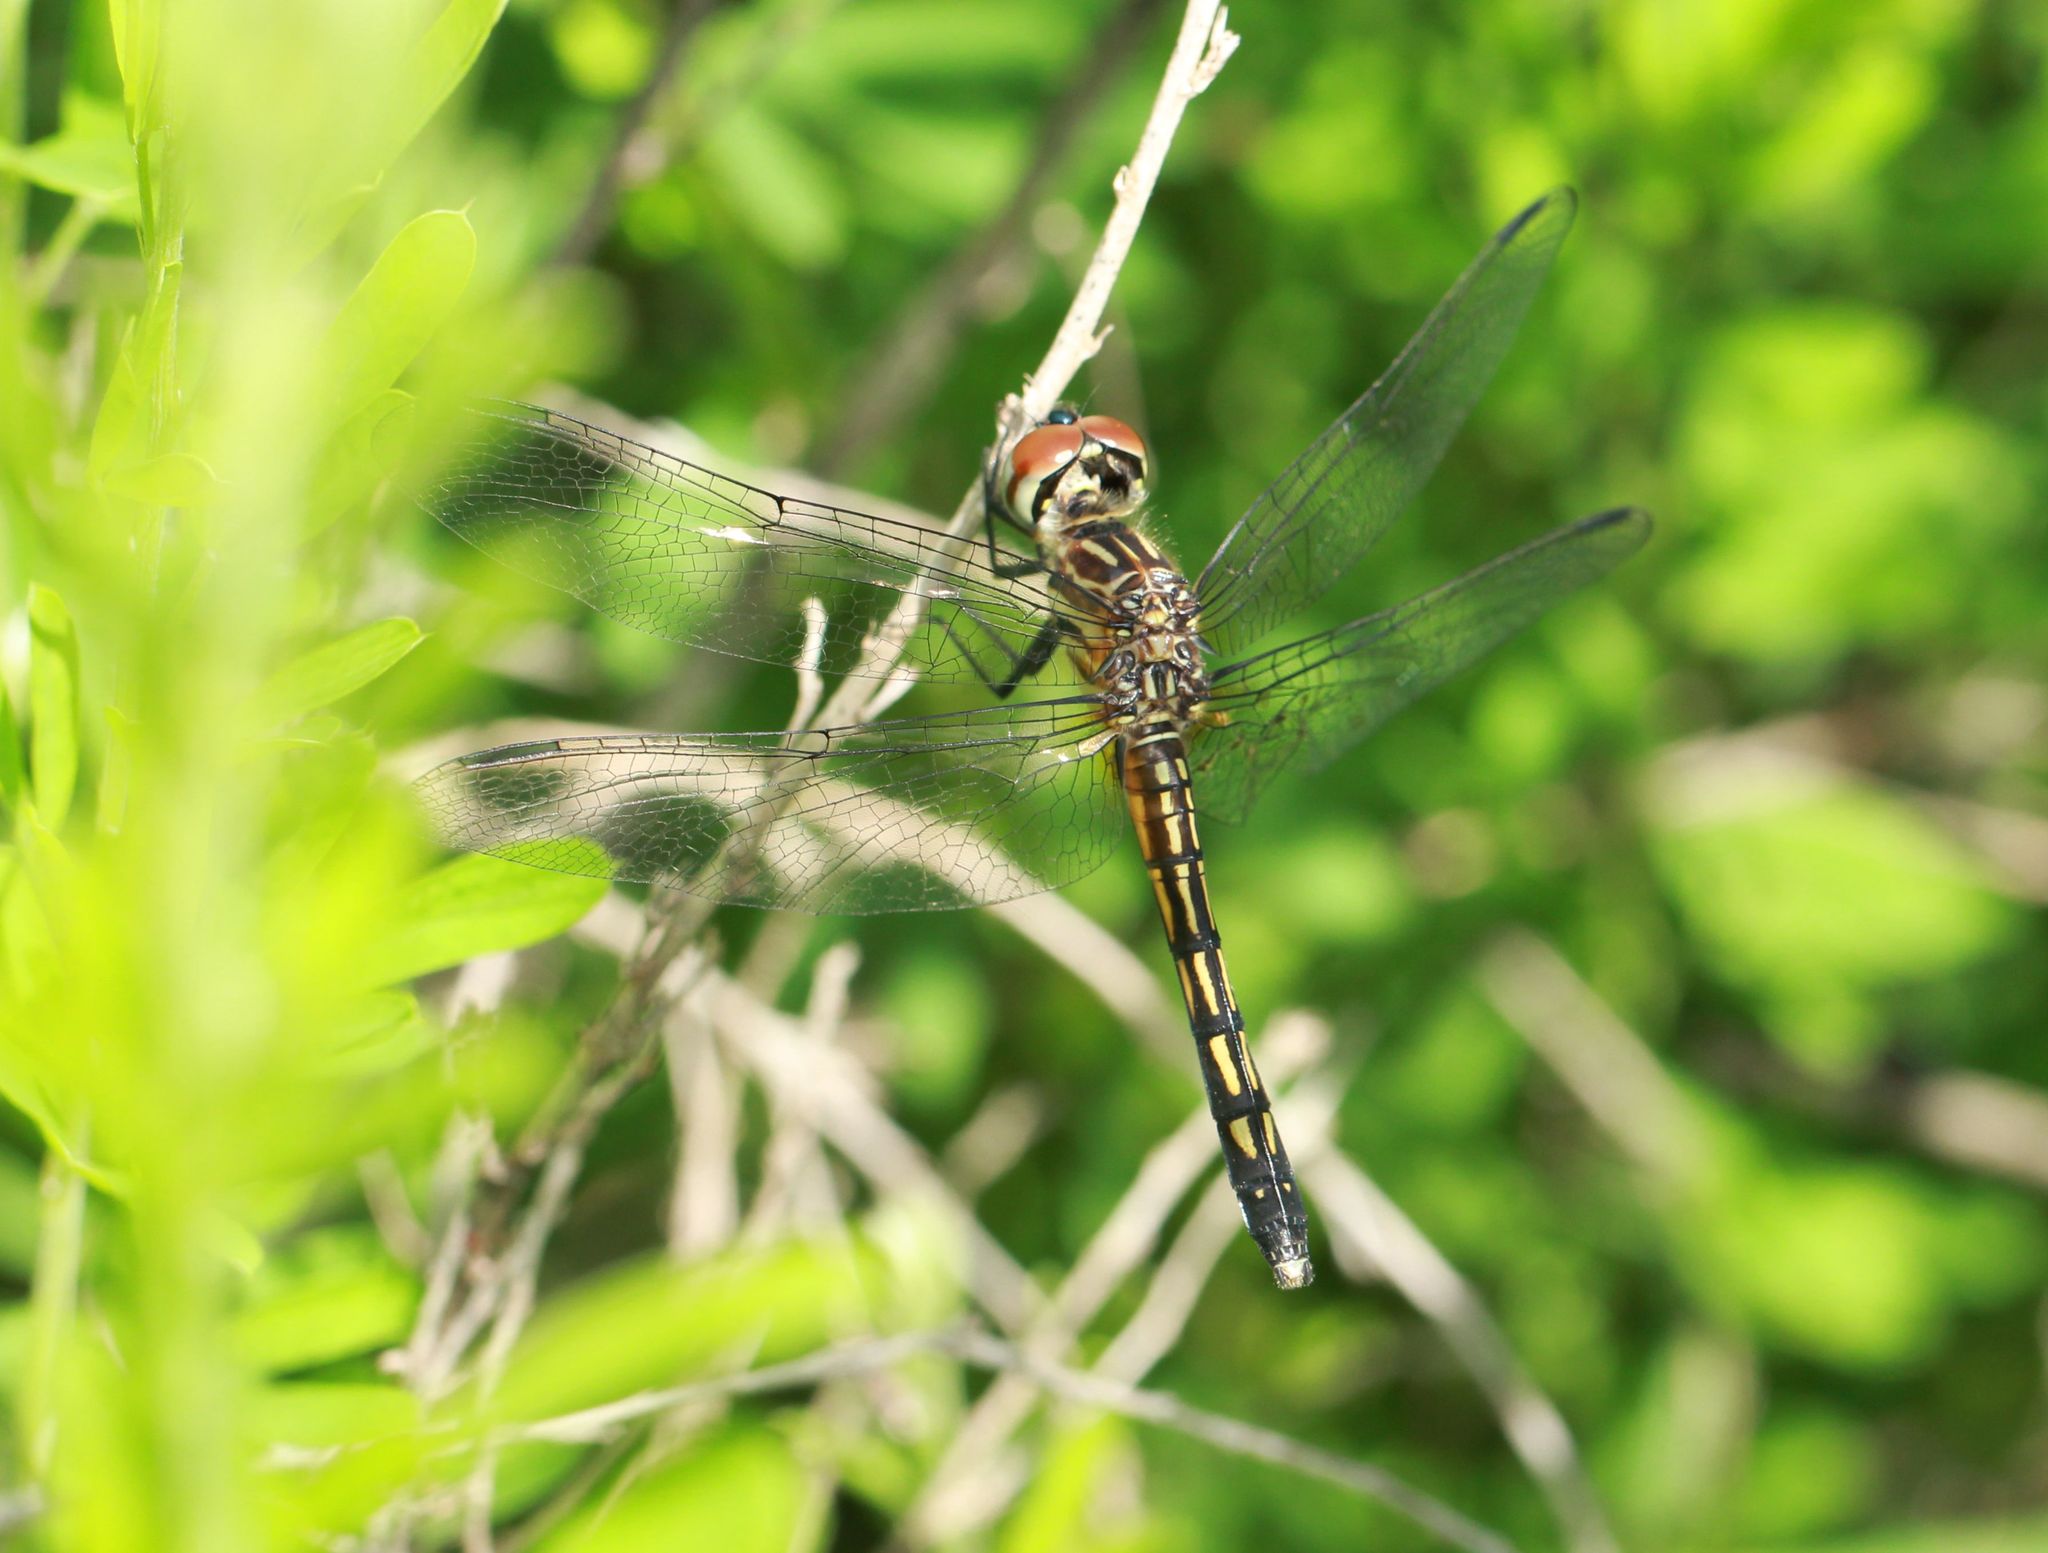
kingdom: Animalia
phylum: Arthropoda
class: Insecta
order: Odonata
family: Libellulidae
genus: Pachydiplax
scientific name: Pachydiplax longipennis
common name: Blue dasher
